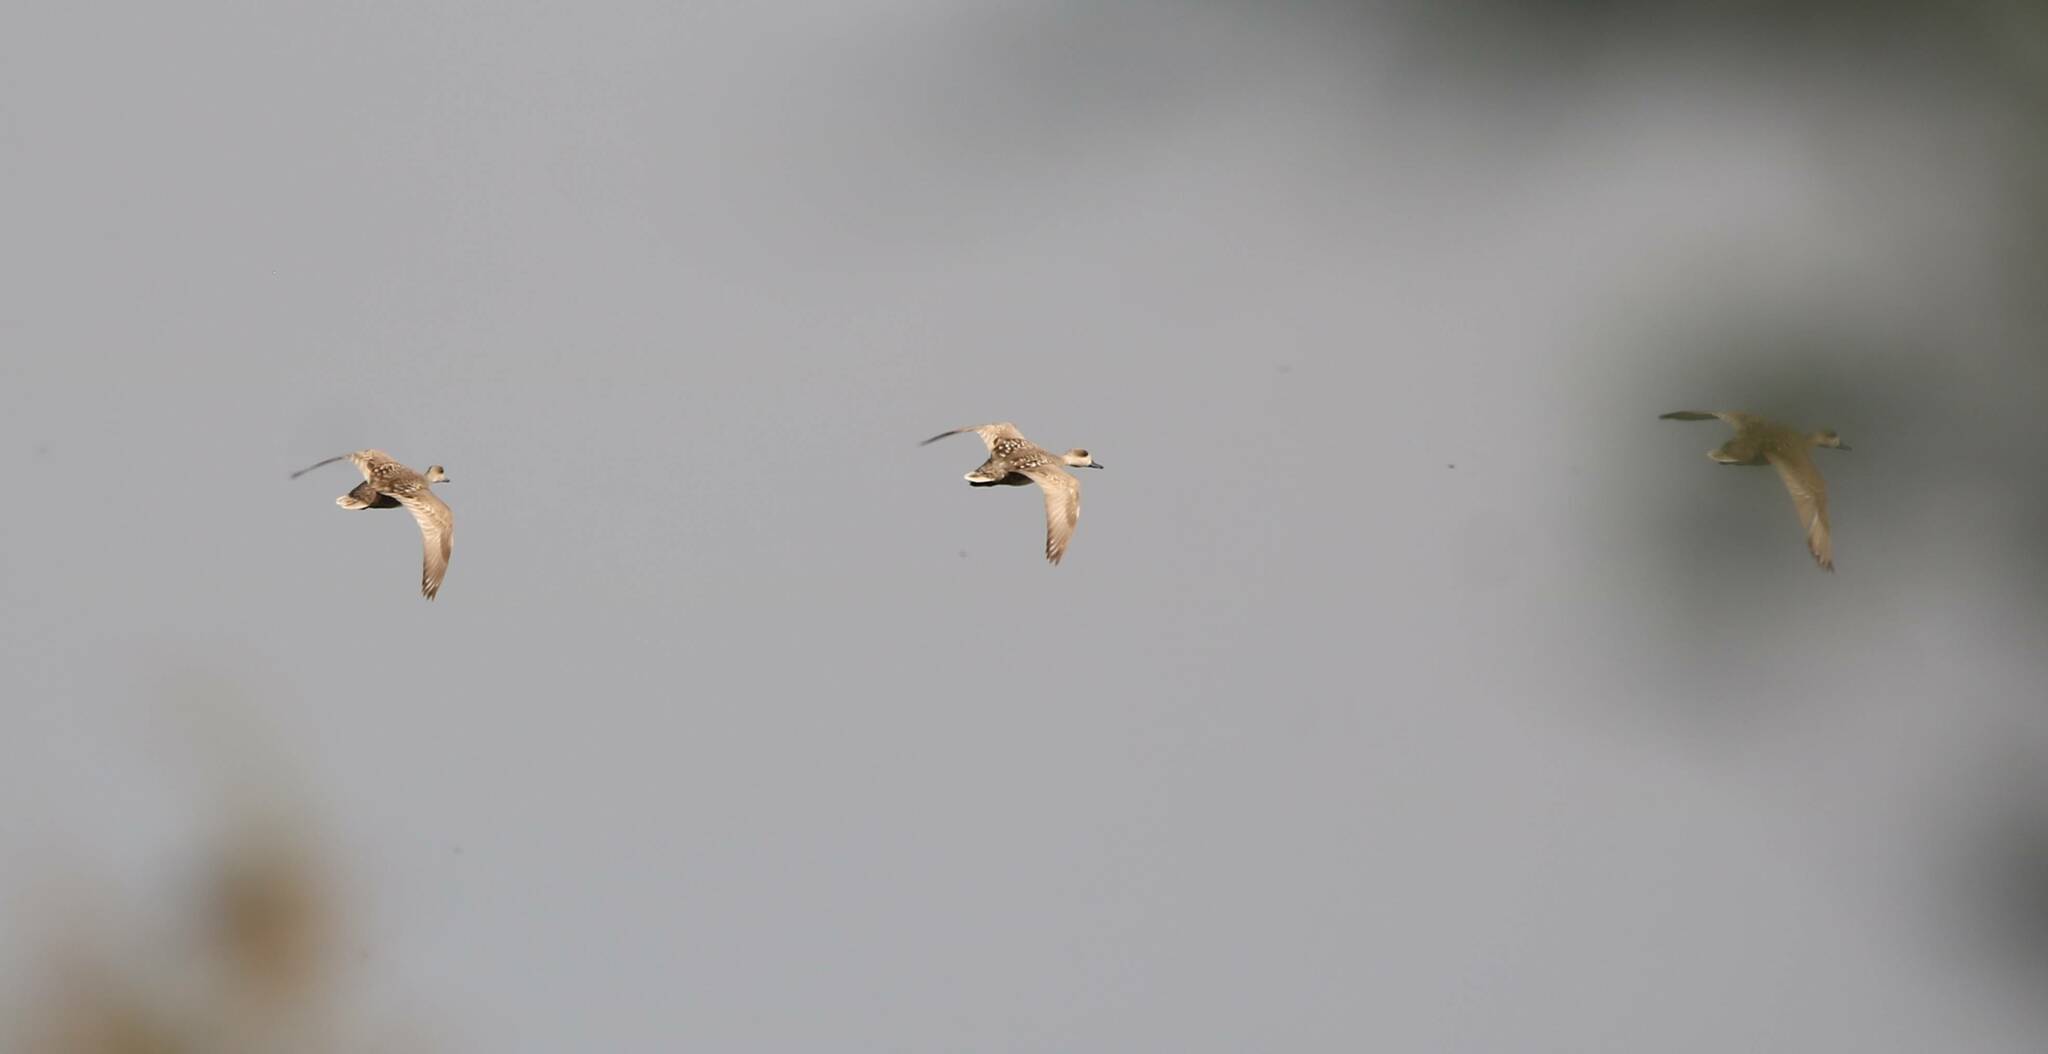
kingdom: Animalia
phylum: Chordata
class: Aves
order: Anseriformes
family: Anatidae
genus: Marmaronetta
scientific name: Marmaronetta angustirostris
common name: Marbled duck
